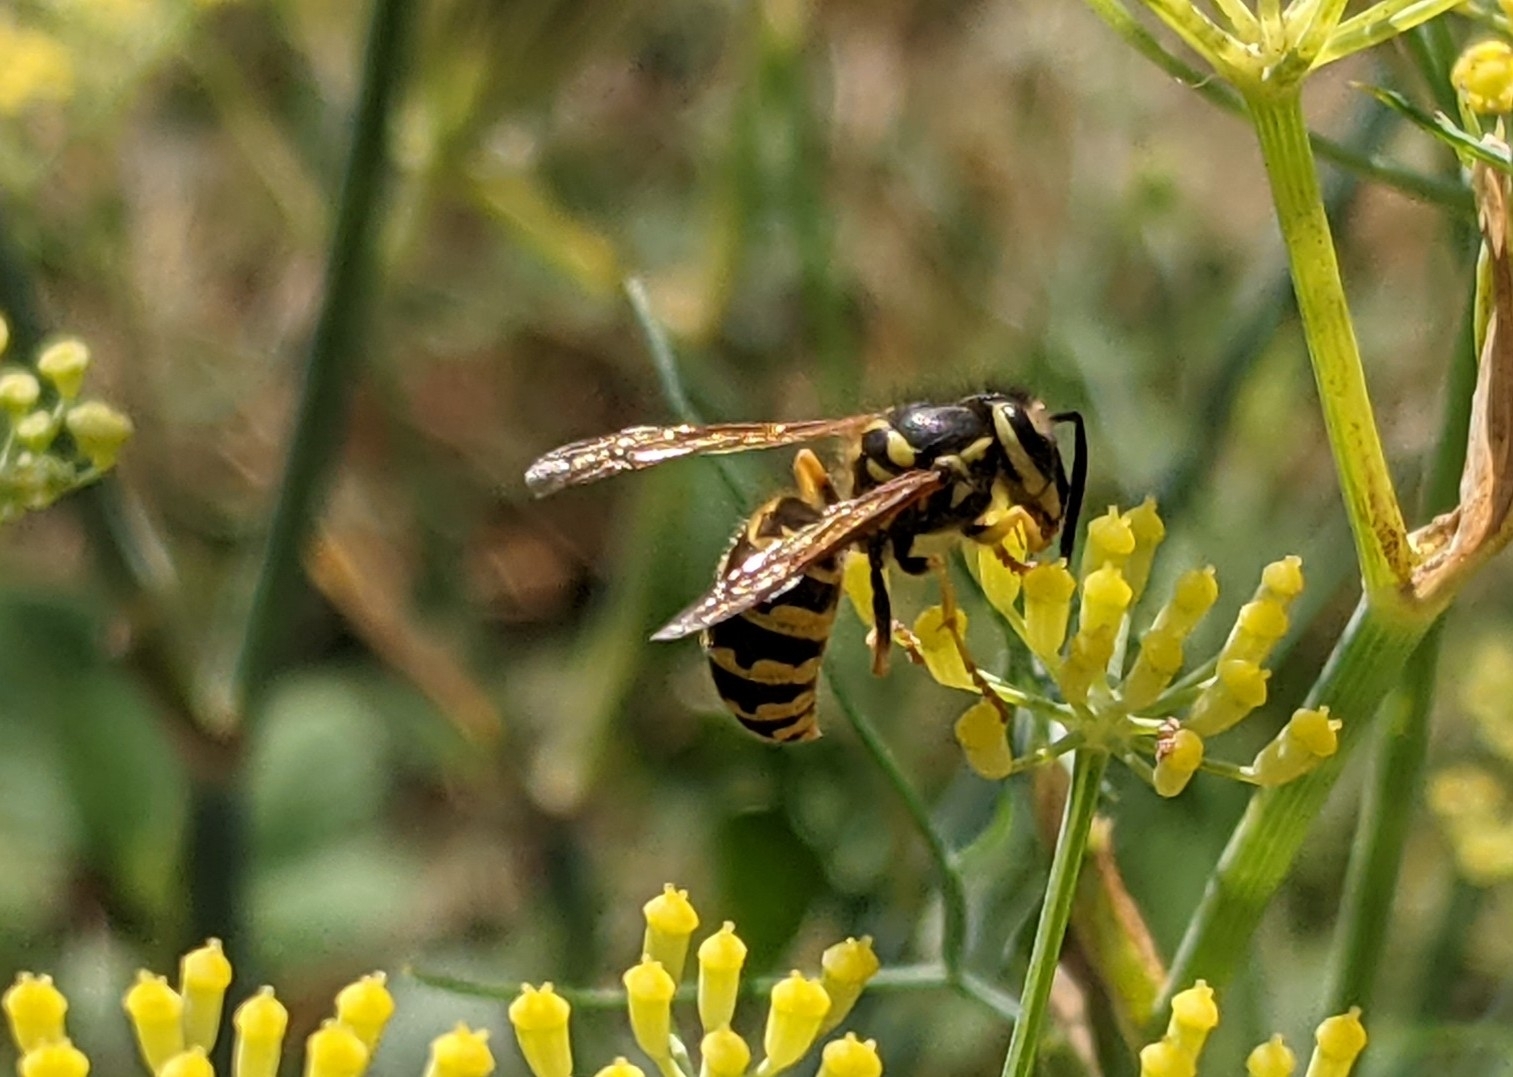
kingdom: Animalia
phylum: Arthropoda
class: Insecta
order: Hymenoptera
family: Vespidae
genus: Vespula
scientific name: Vespula pensylvanica
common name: Western yellowjacket
